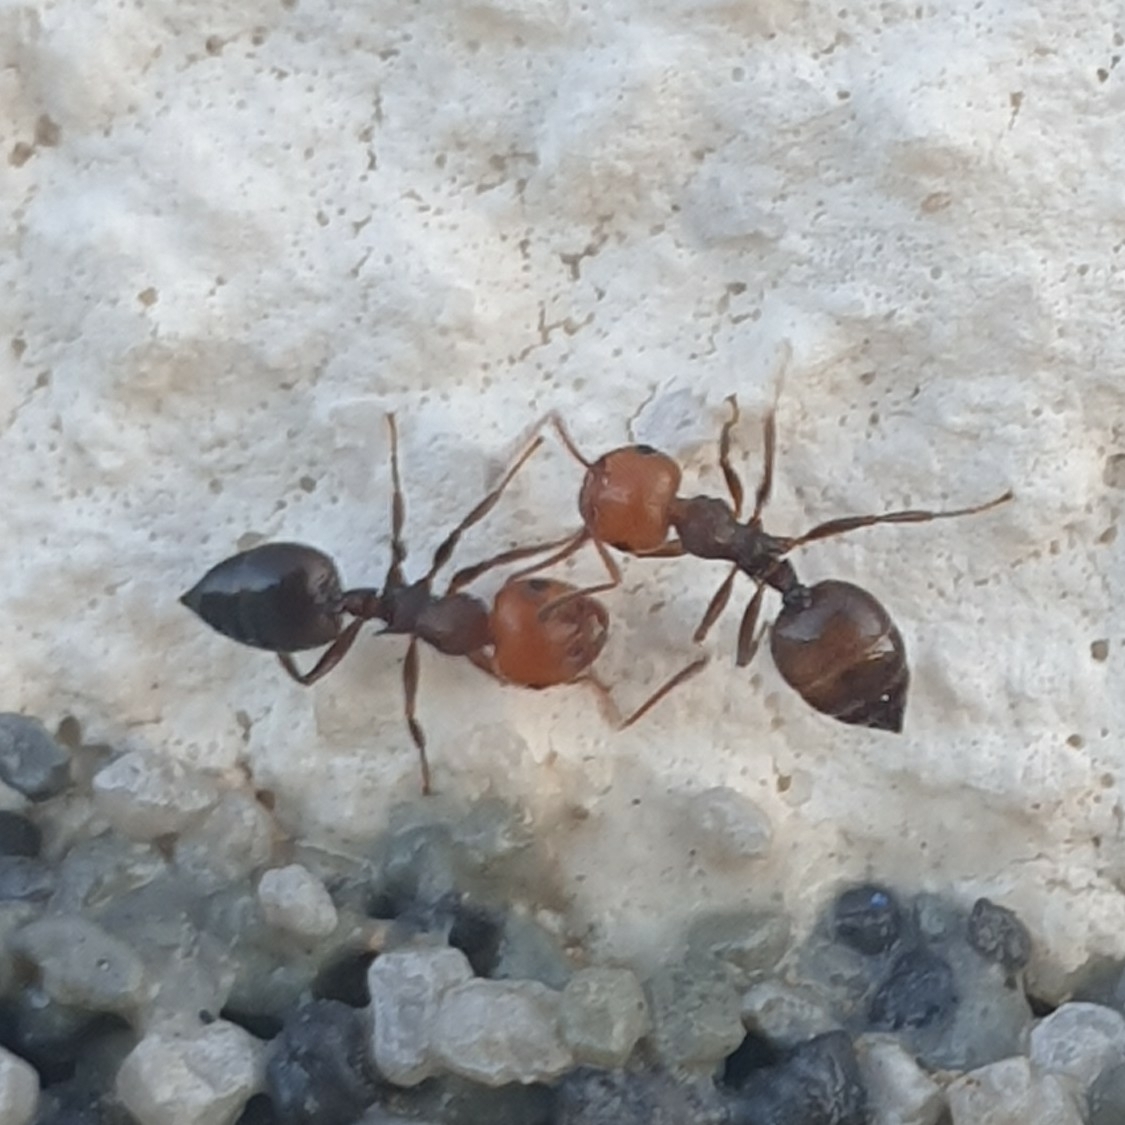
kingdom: Animalia
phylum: Arthropoda
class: Insecta
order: Hymenoptera
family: Formicidae
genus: Crematogaster
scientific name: Crematogaster scutellaris
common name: Fourmi du liège
